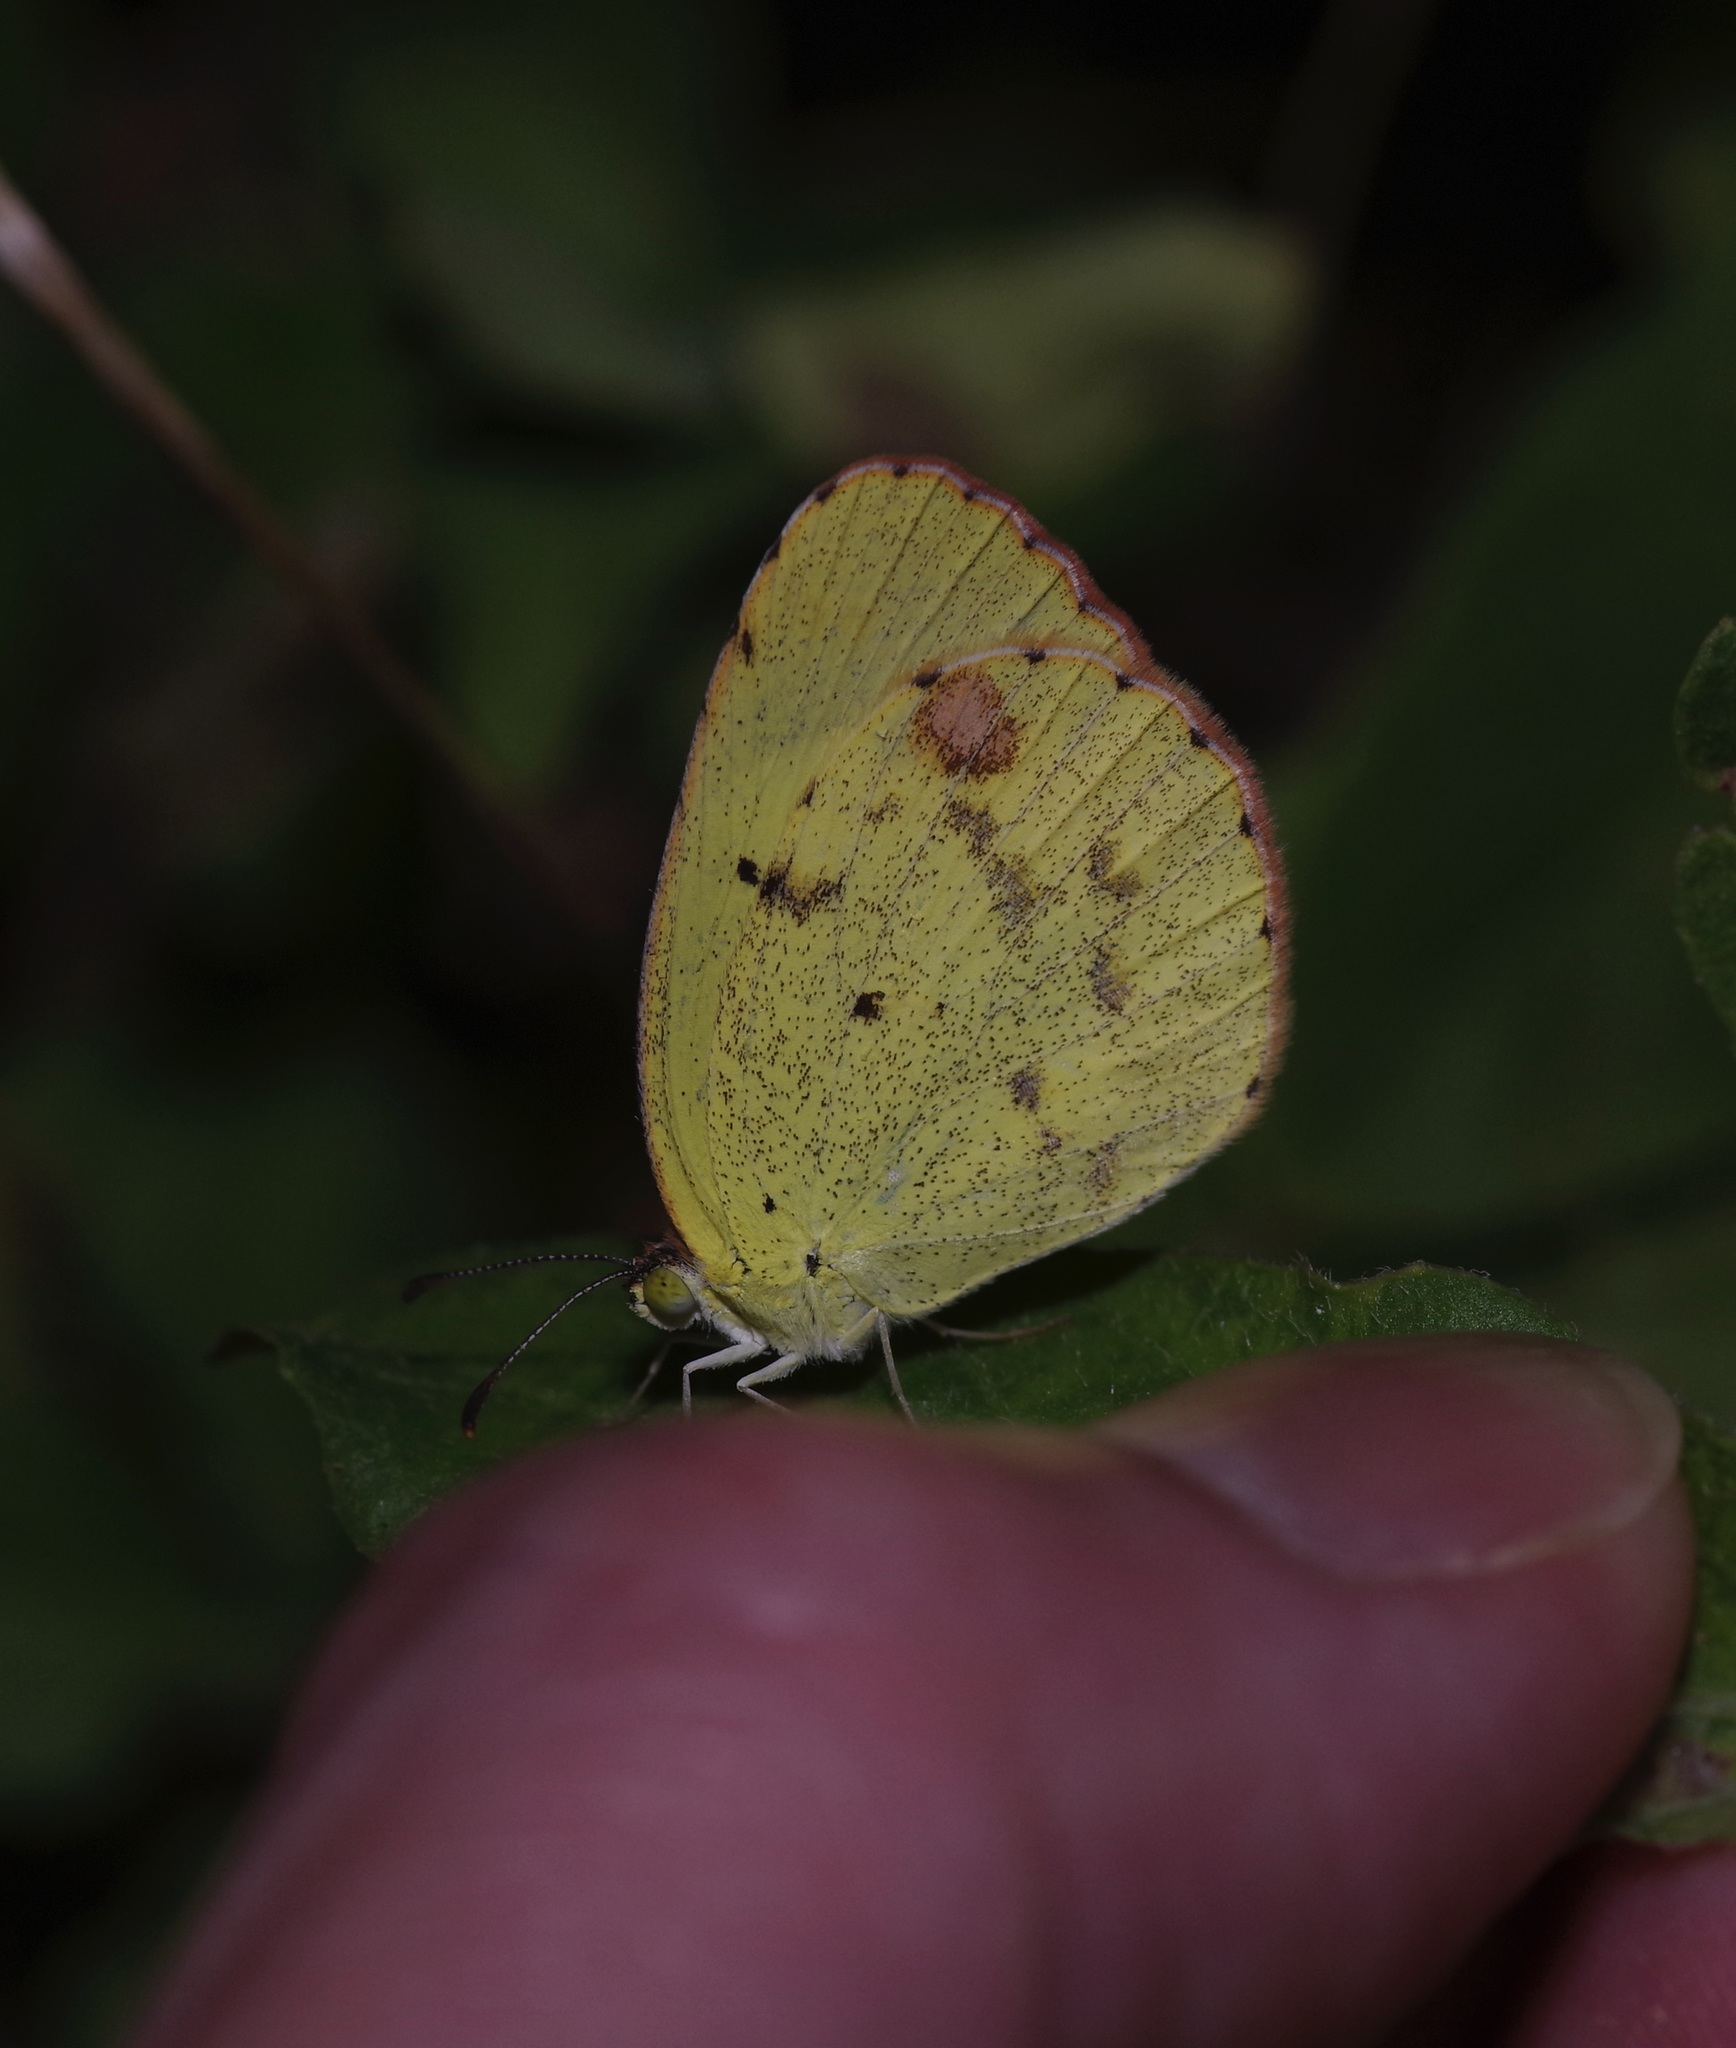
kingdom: Animalia
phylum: Arthropoda
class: Insecta
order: Lepidoptera
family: Pieridae
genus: Pyrisitia
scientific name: Pyrisitia lisa
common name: Little yellow
